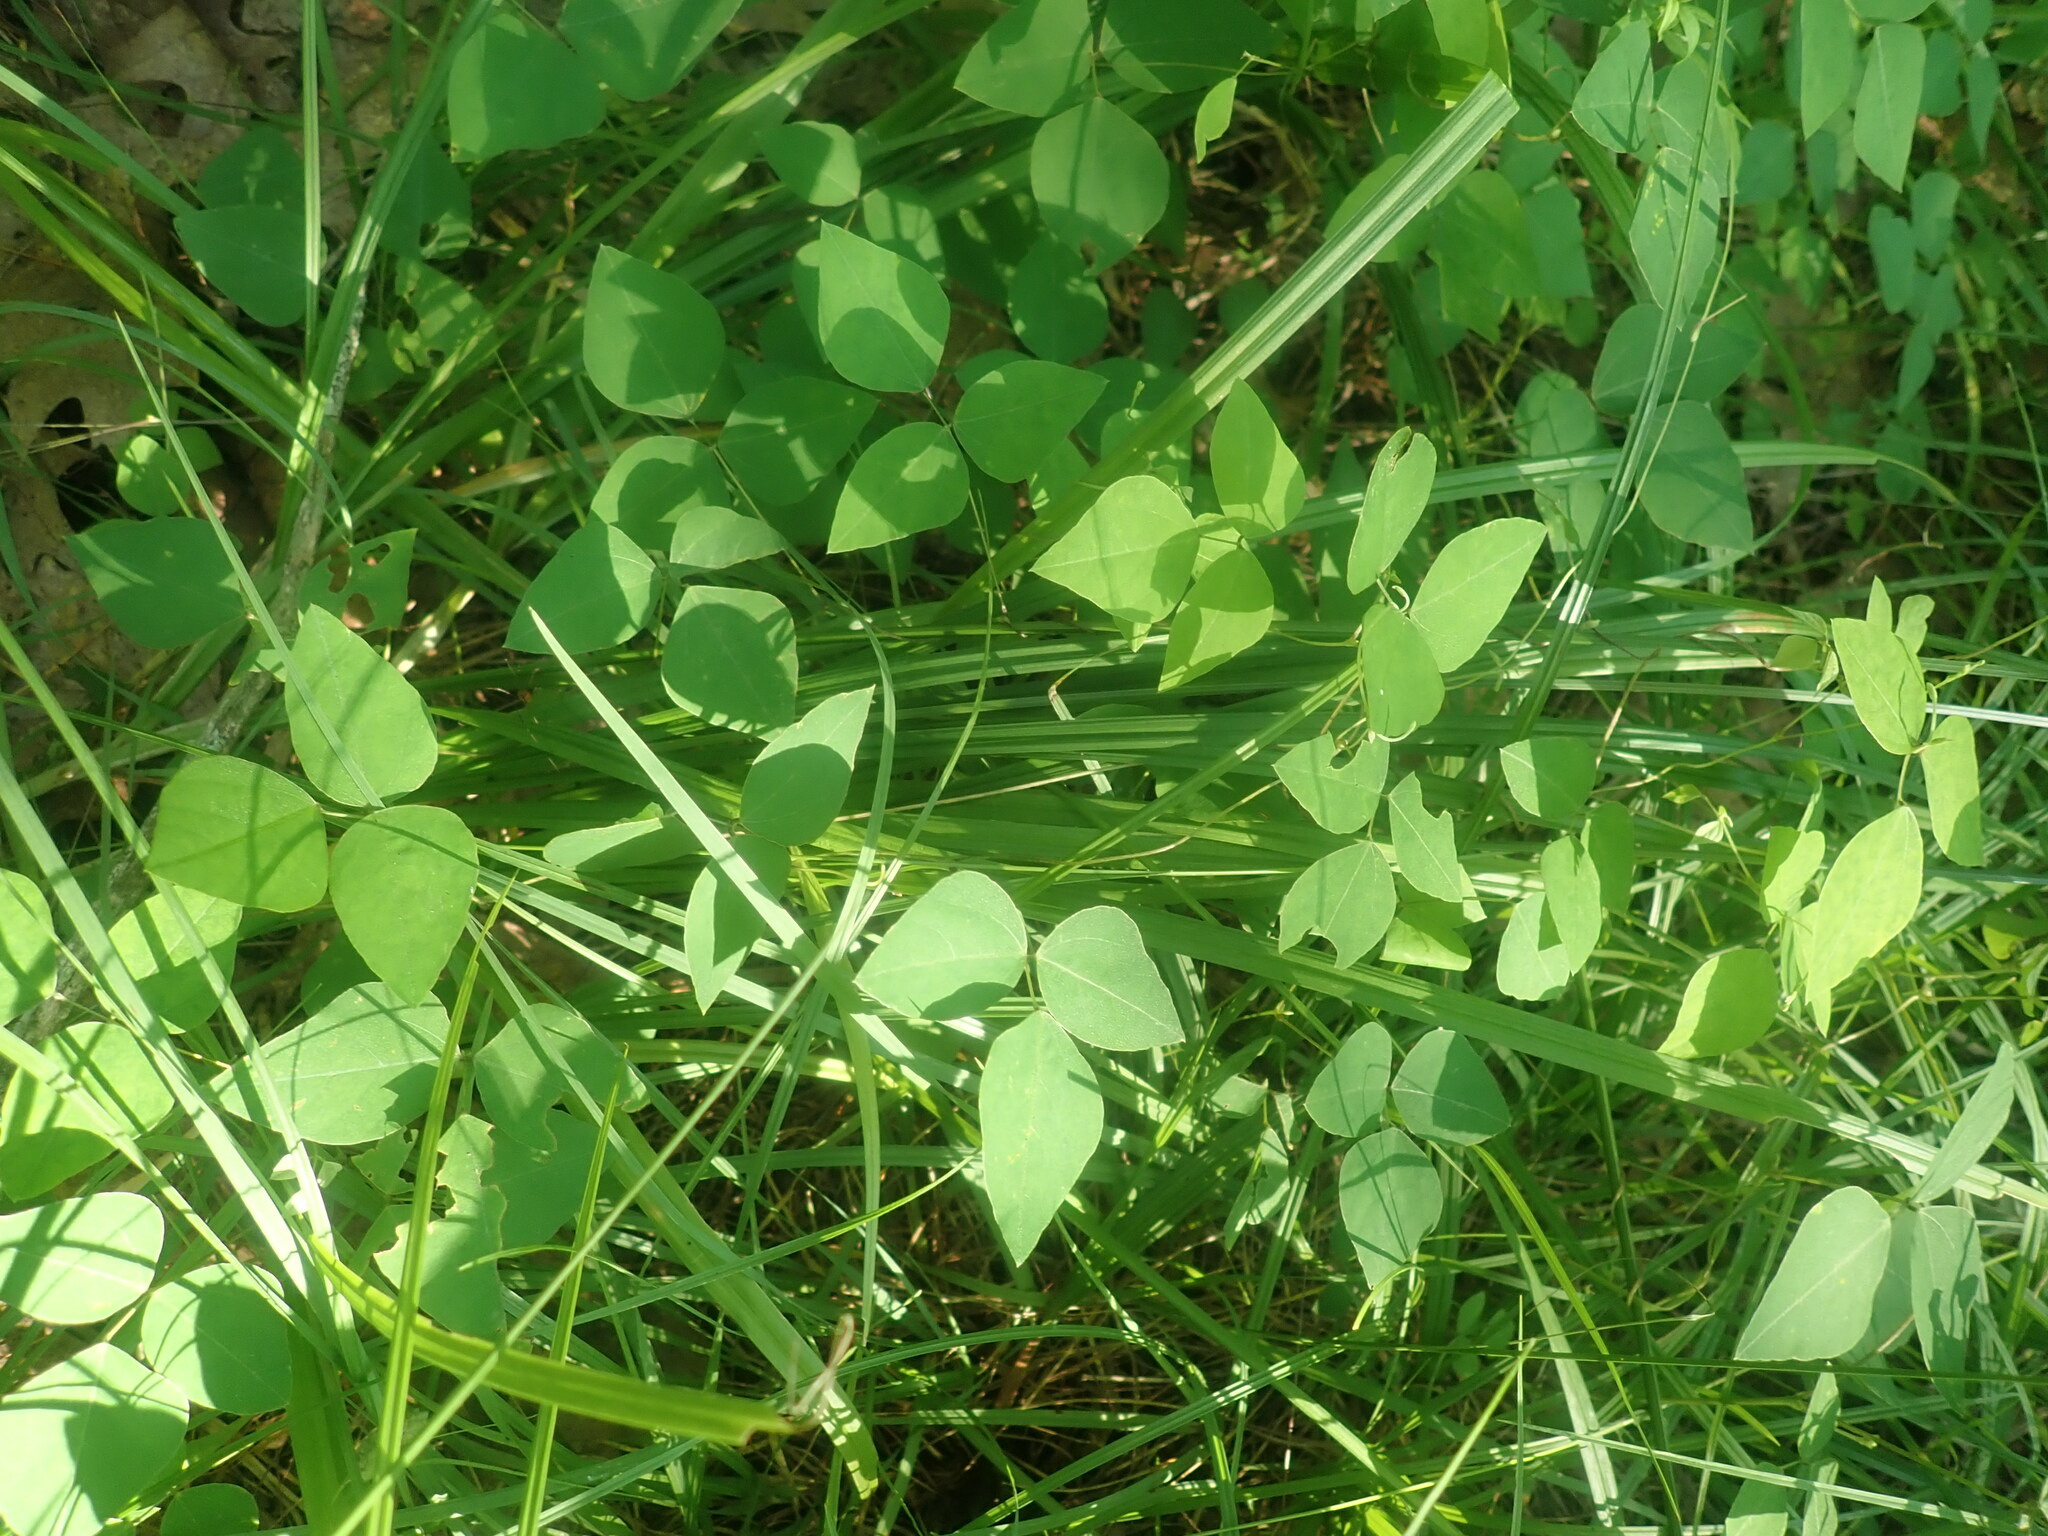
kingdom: Plantae
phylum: Tracheophyta
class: Magnoliopsida
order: Fabales
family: Fabaceae
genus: Amphicarpaea
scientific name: Amphicarpaea bracteata
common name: American hog peanut
